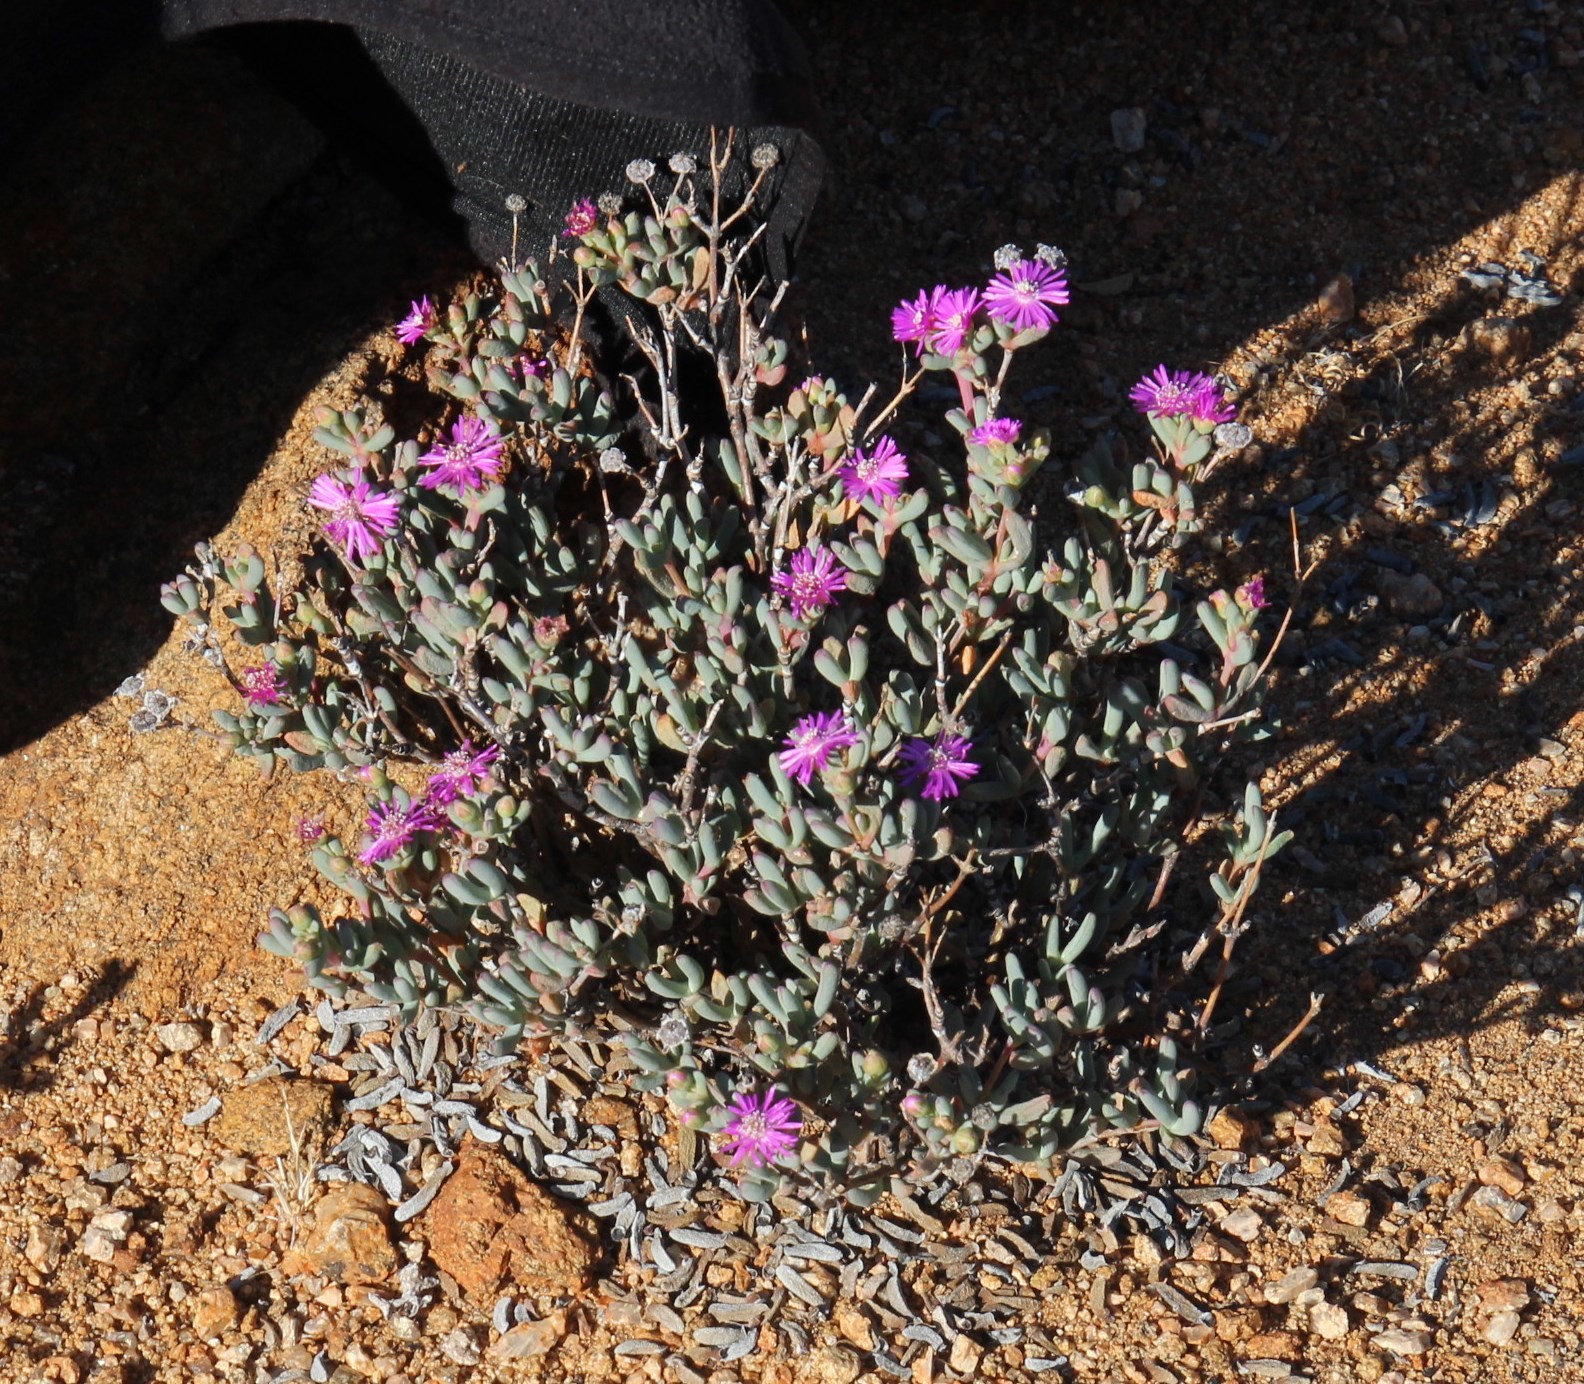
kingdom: Plantae
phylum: Tracheophyta
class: Magnoliopsida
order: Caryophyllales
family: Aizoaceae
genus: Leipoldtia
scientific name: Leipoldtia schultzei
